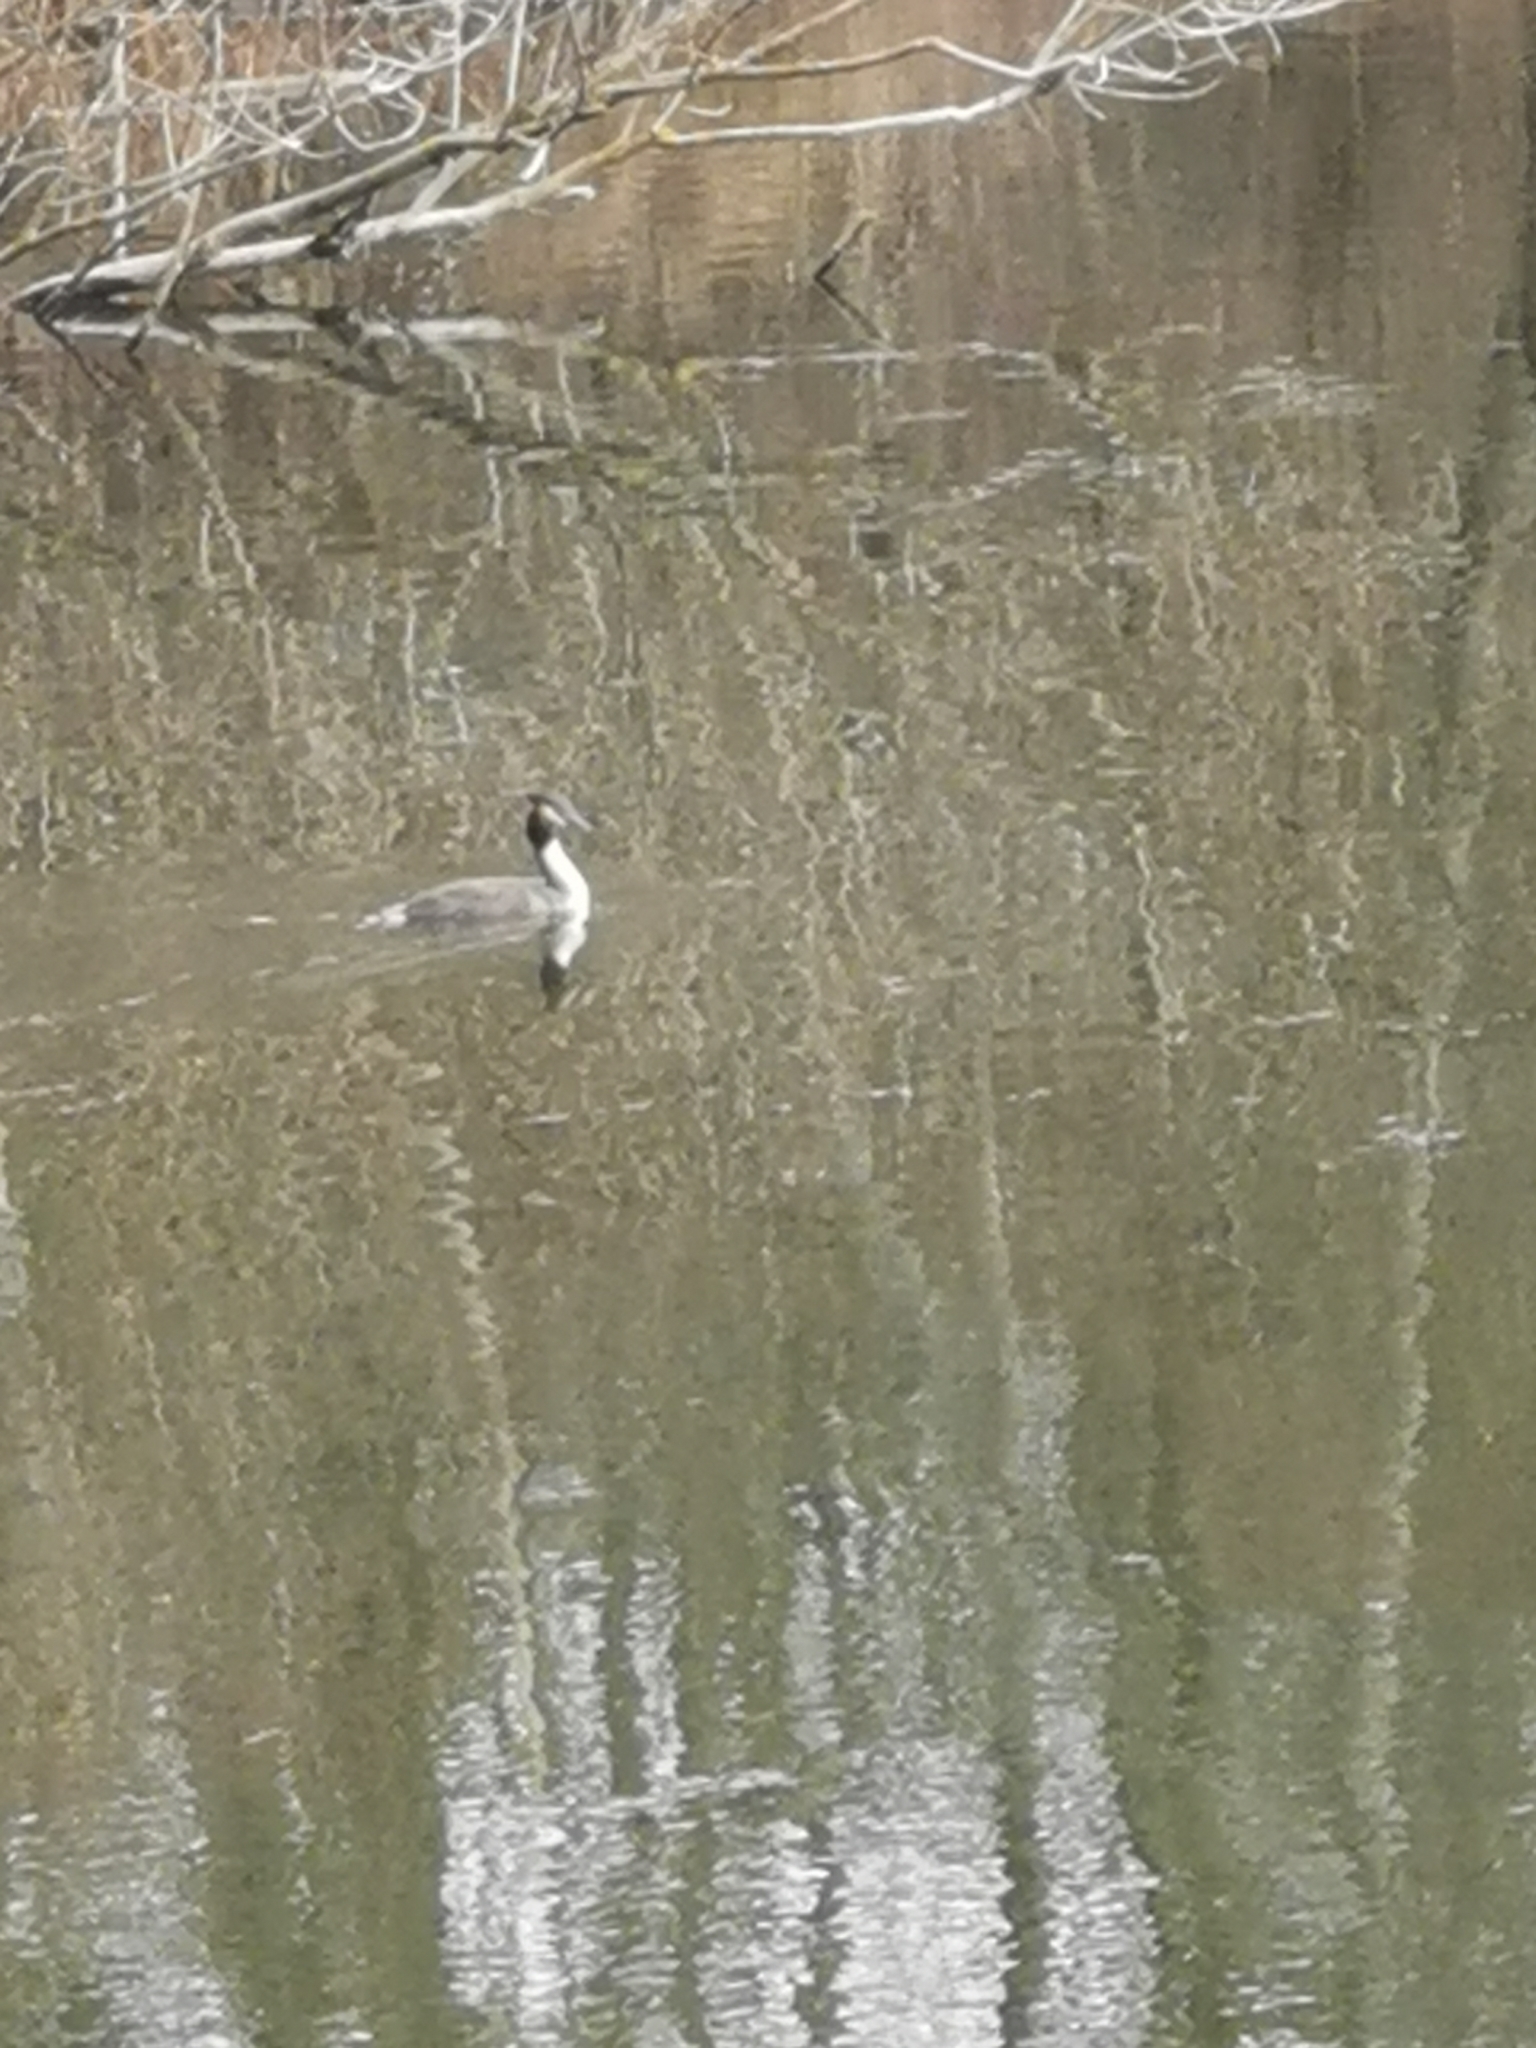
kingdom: Animalia
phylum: Chordata
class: Aves
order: Podicipediformes
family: Podicipedidae
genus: Podiceps
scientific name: Podiceps cristatus
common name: Great crested grebe
